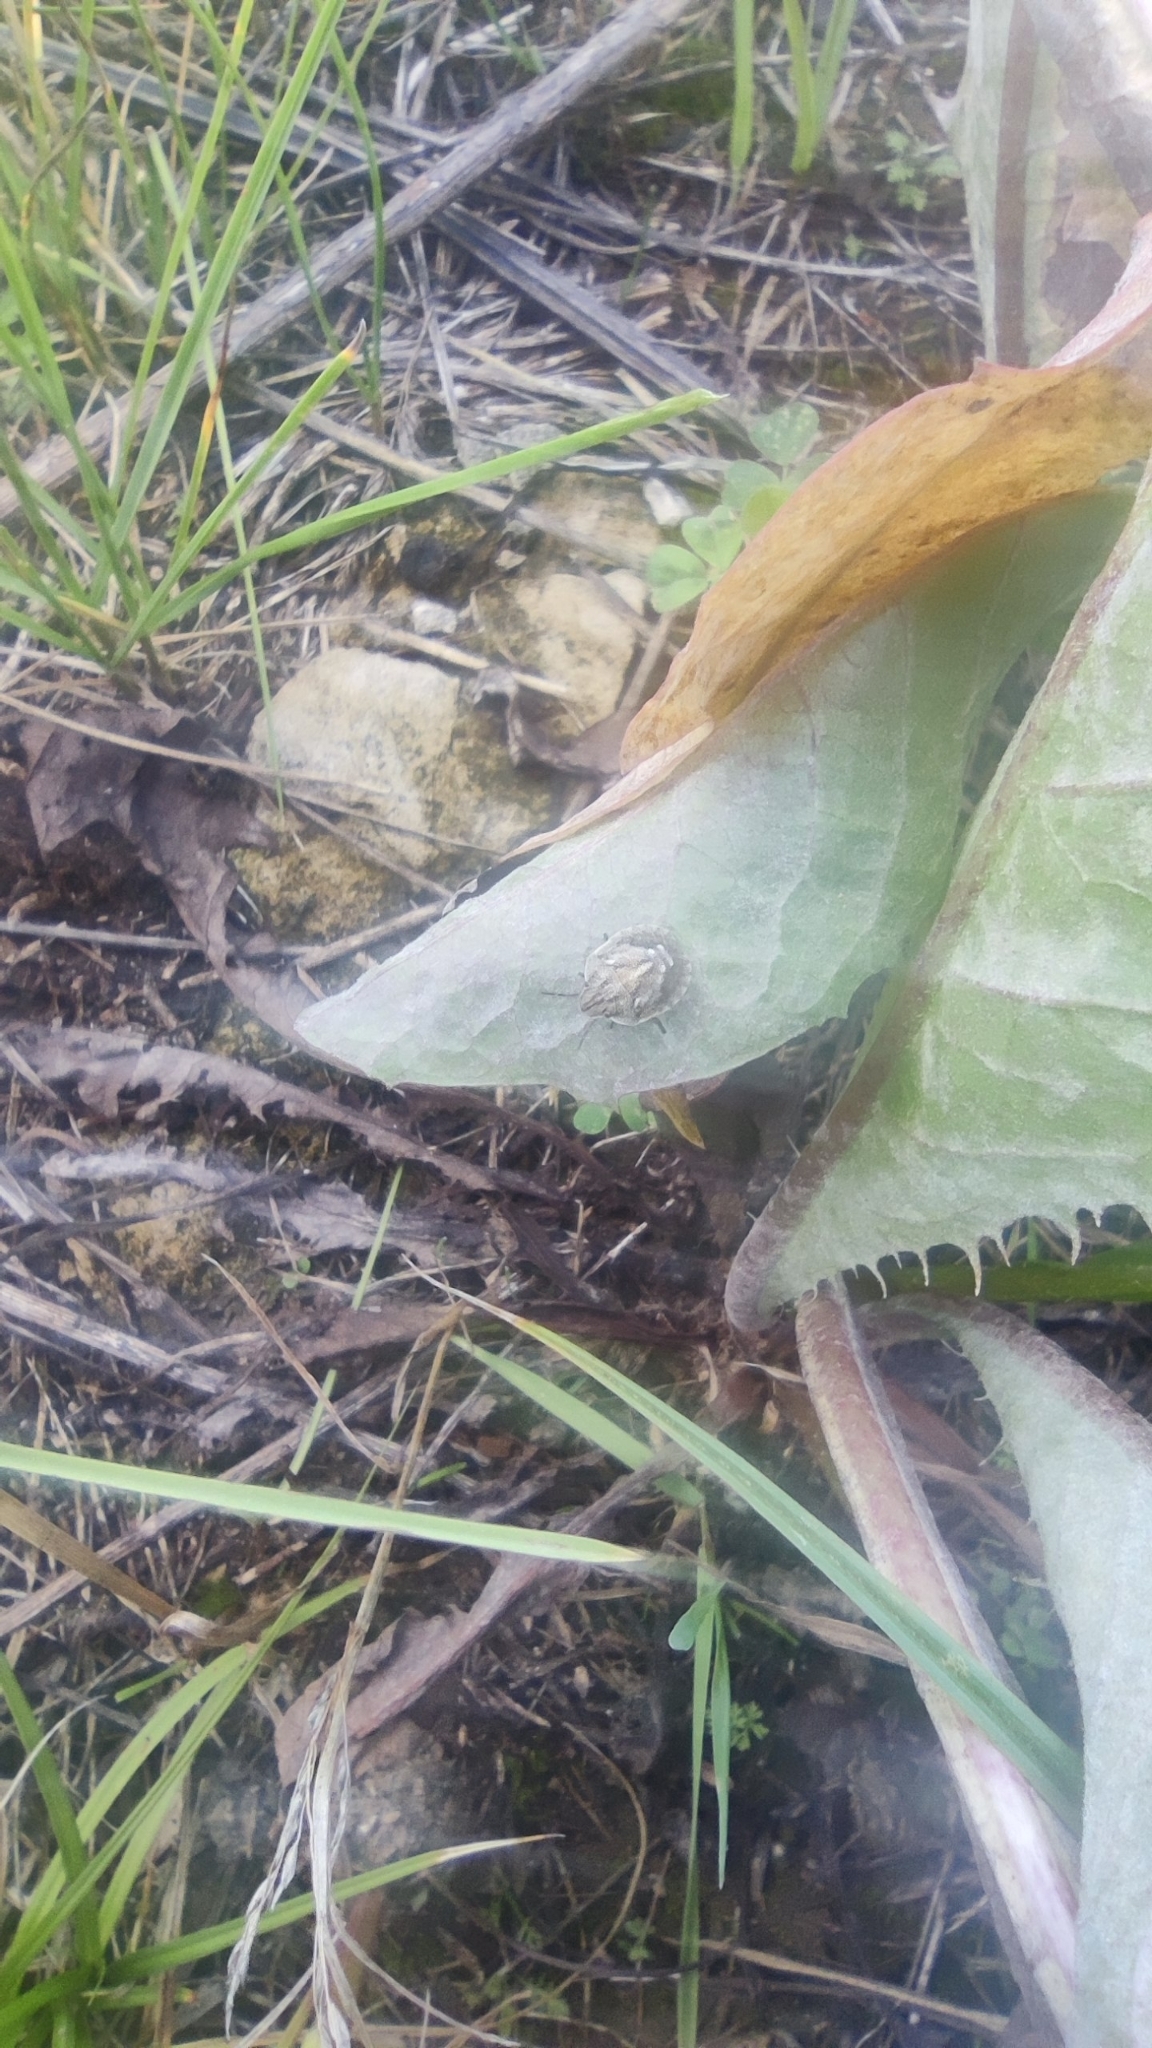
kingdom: Animalia
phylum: Arthropoda
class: Insecta
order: Hemiptera
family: Scutelleridae
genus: Eurygaster
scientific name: Eurygaster testudinaria
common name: Tortoise bug
